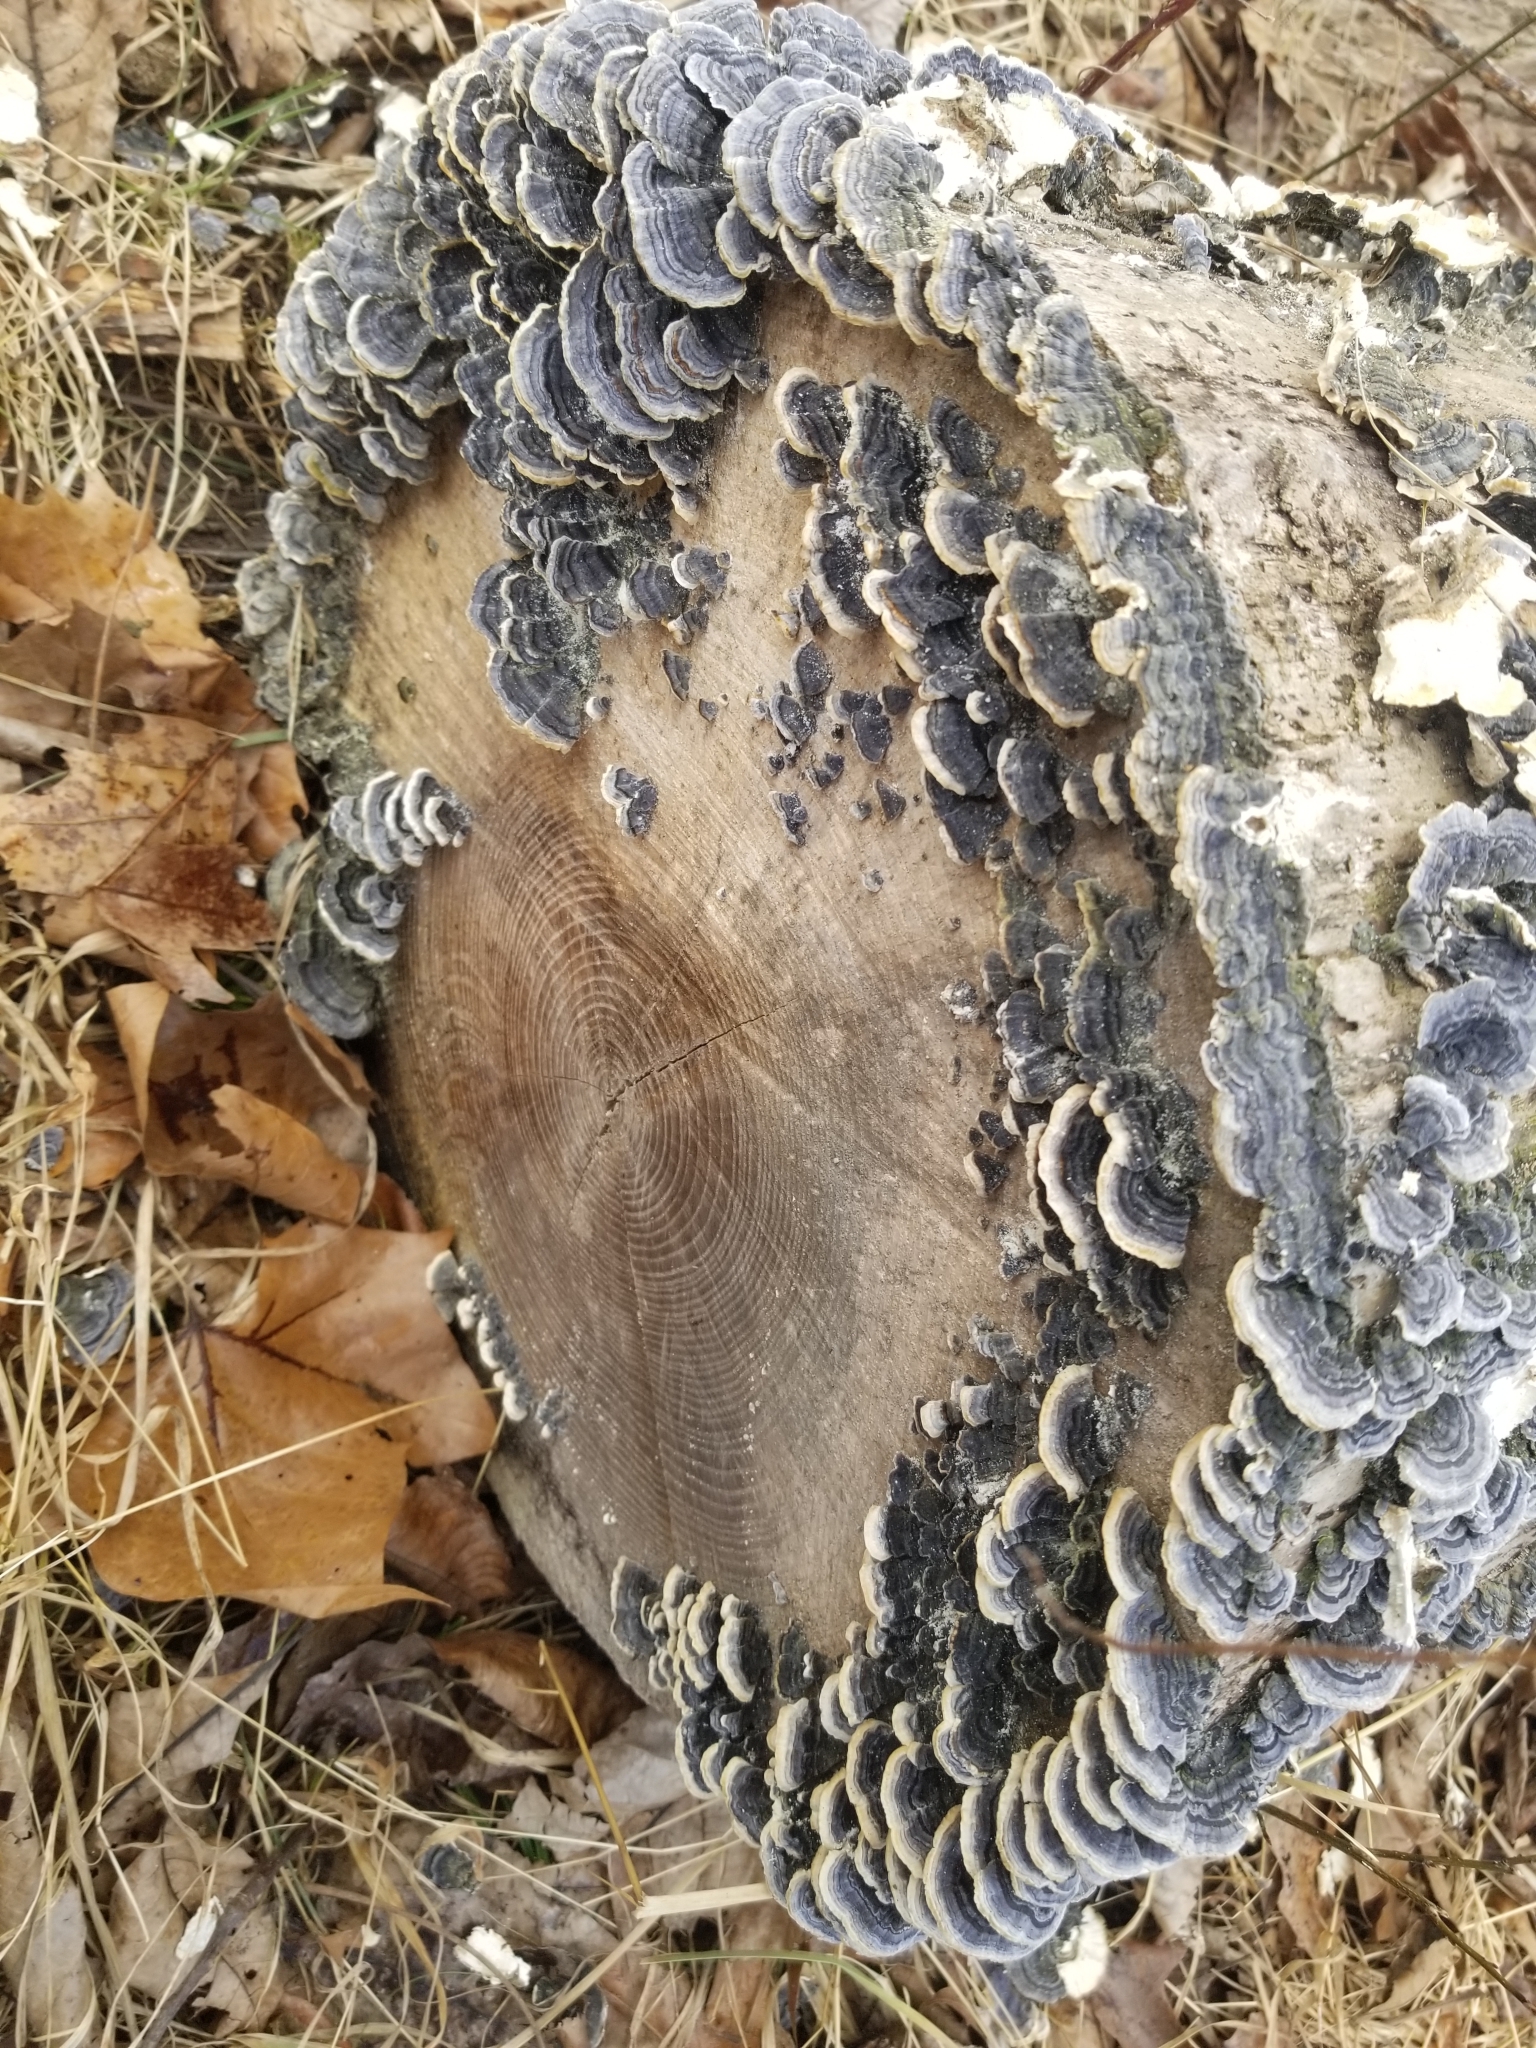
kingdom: Fungi
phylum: Basidiomycota
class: Agaricomycetes
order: Polyporales
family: Polyporaceae
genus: Trametes
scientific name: Trametes versicolor
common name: Turkeytail
